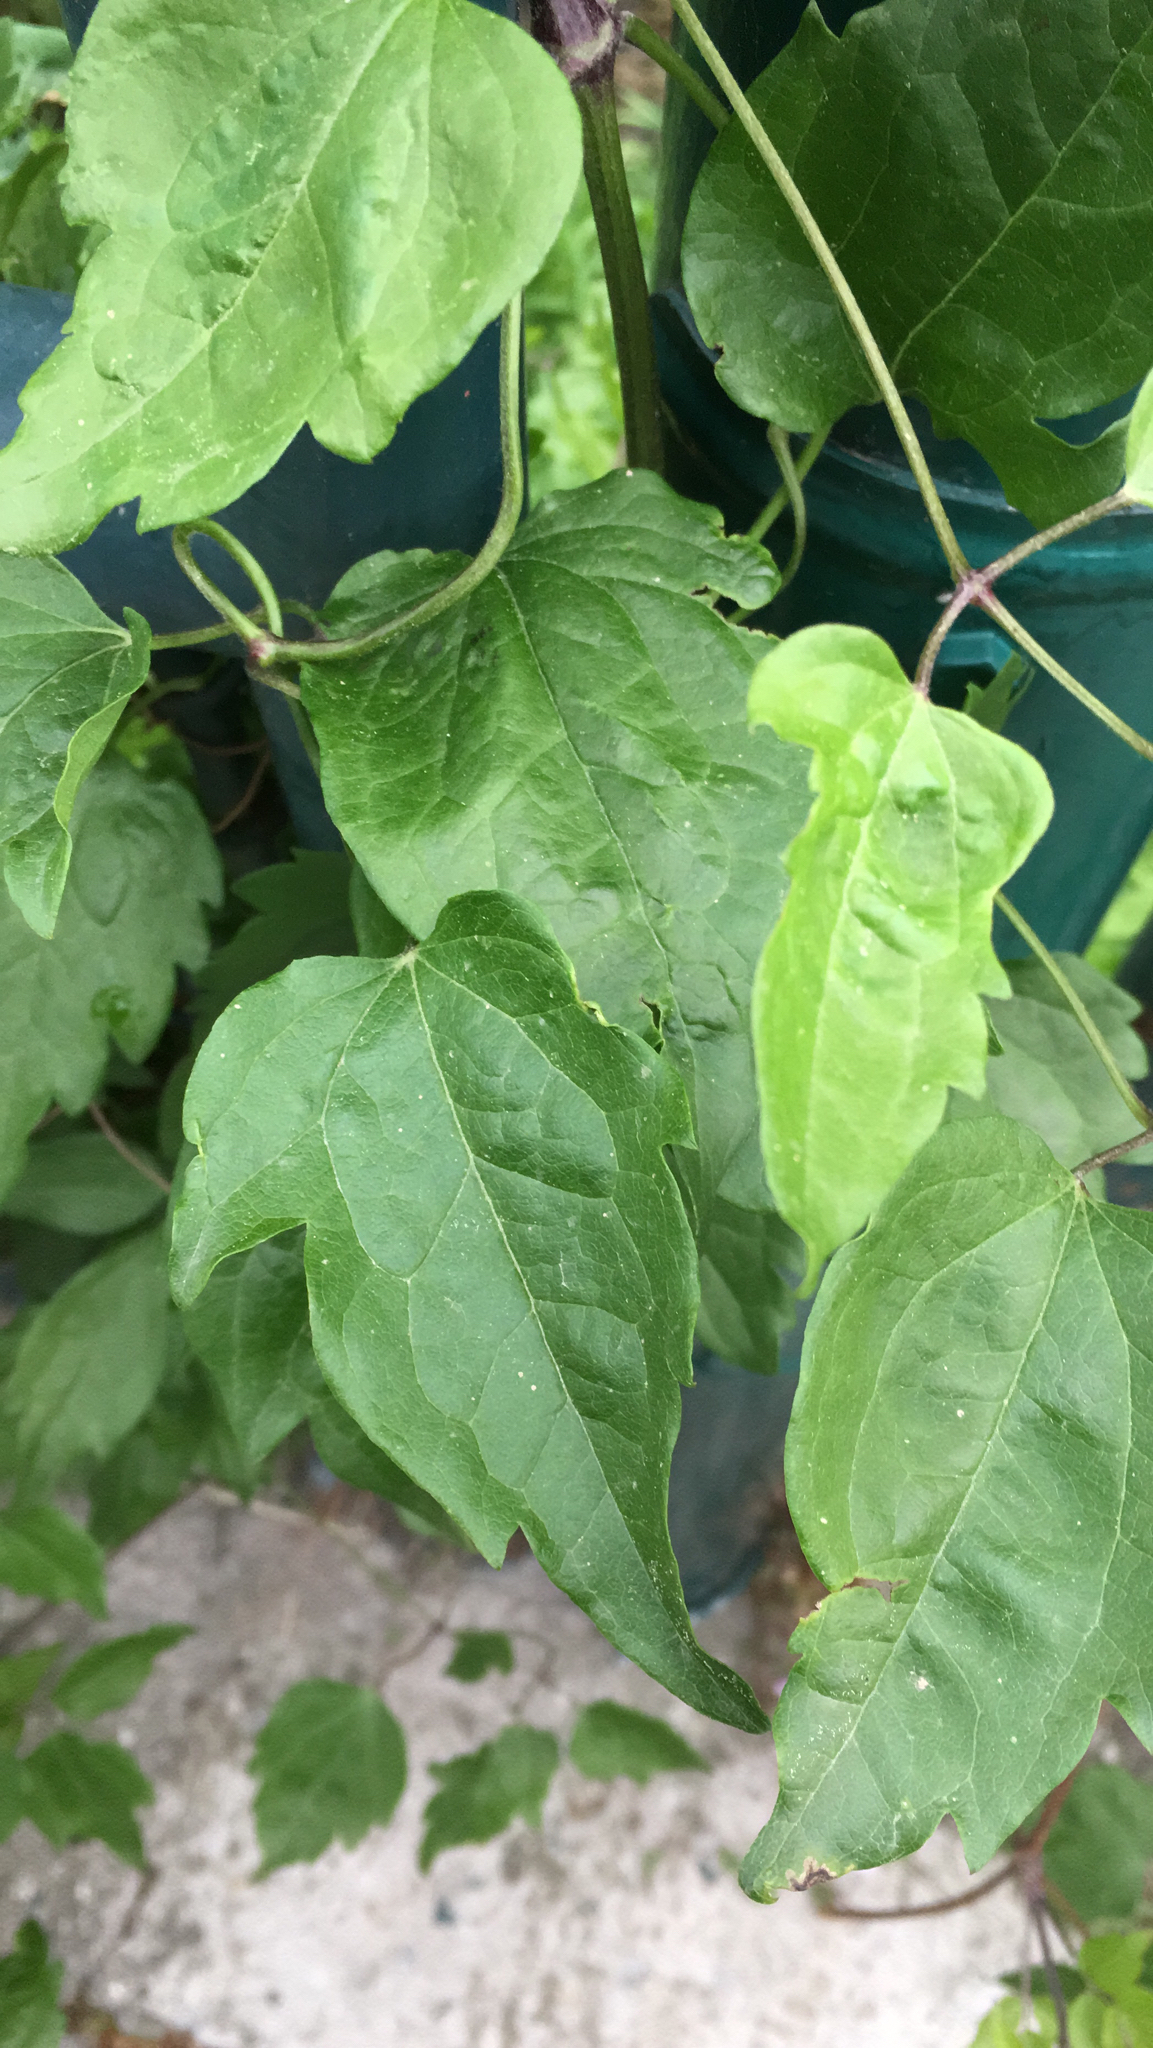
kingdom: Plantae
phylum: Tracheophyta
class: Magnoliopsida
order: Ranunculales
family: Ranunculaceae
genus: Clematis
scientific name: Clematis vitalba
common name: Evergreen clematis
